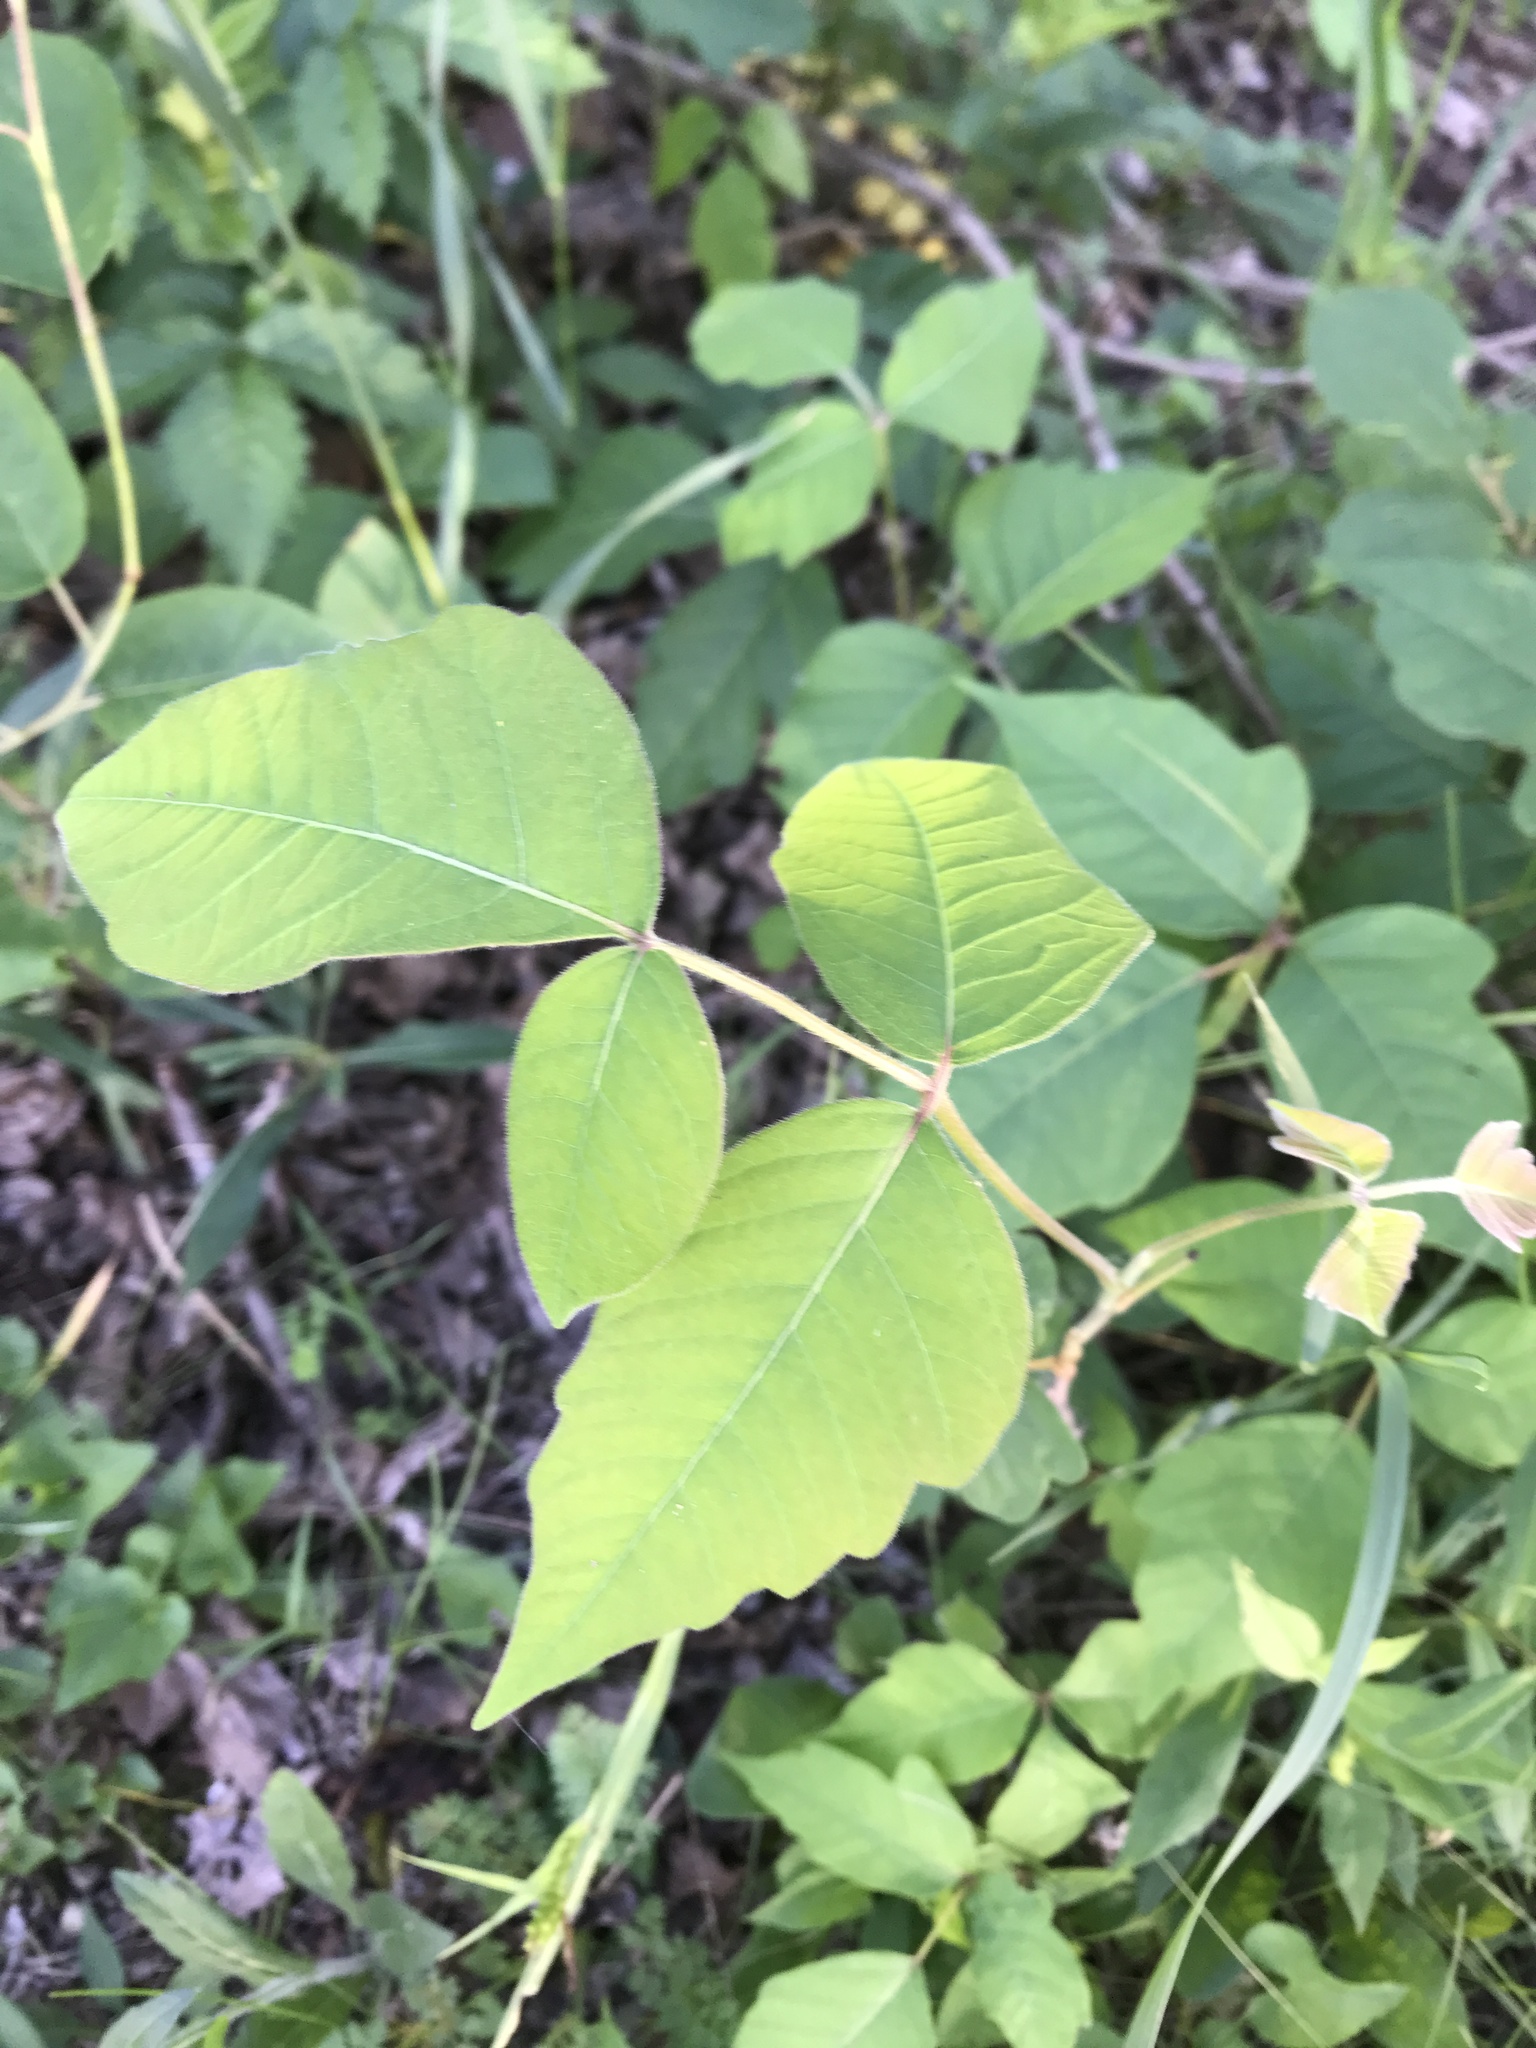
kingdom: Plantae
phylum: Tracheophyta
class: Magnoliopsida
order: Sapindales
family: Anacardiaceae
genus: Toxicodendron
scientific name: Toxicodendron radicans
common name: Poison ivy
